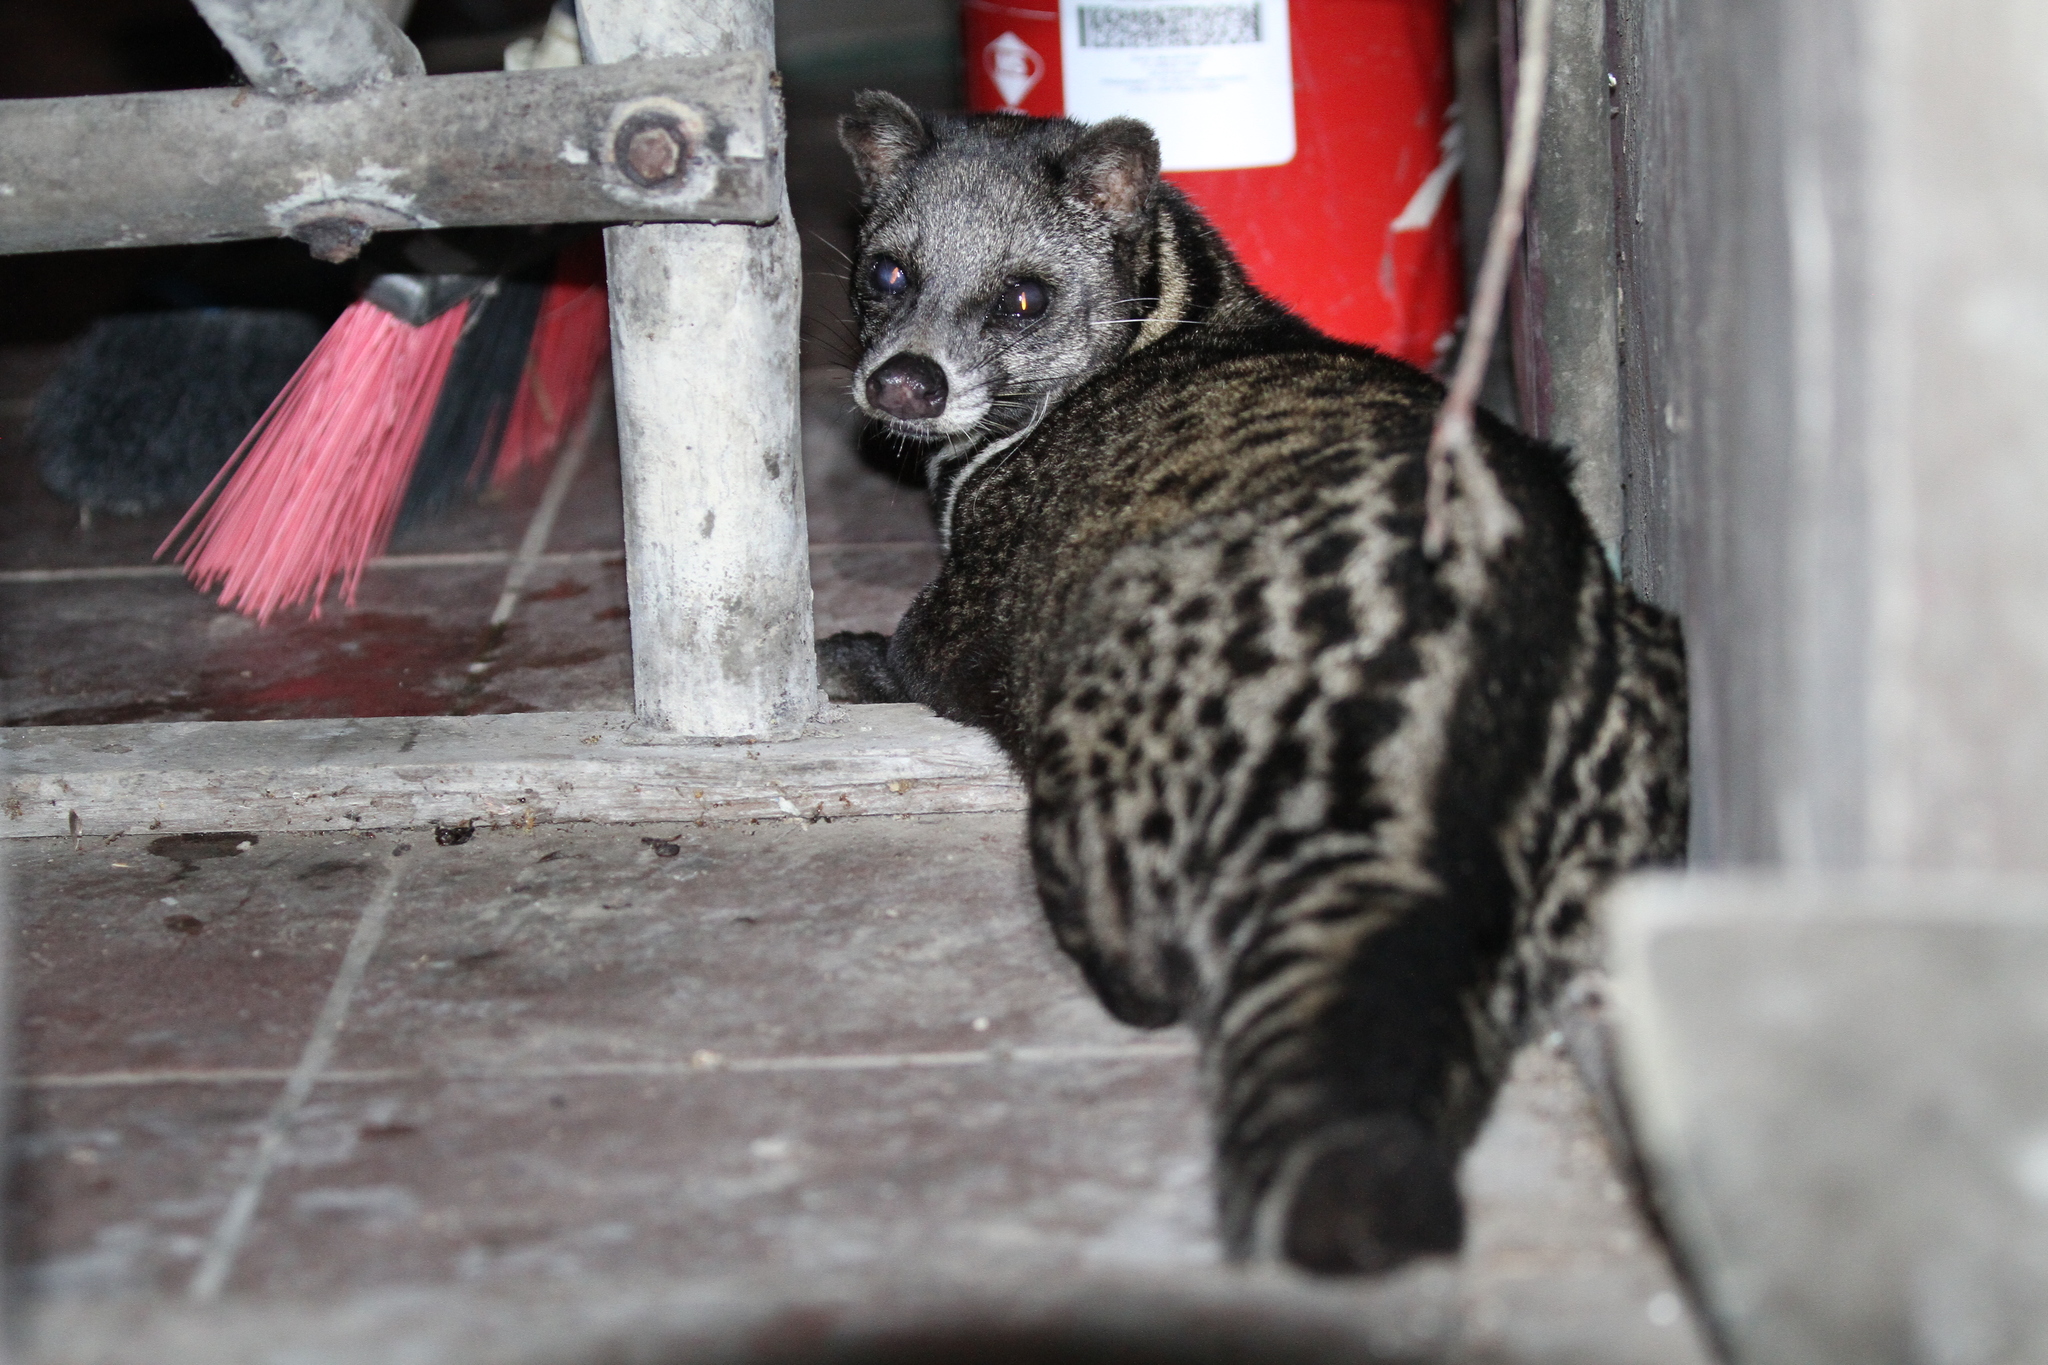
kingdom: Animalia
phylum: Chordata
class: Mammalia
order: Carnivora
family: Viverridae
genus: Viverra
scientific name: Viverra tangalunga
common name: Malayan civet
